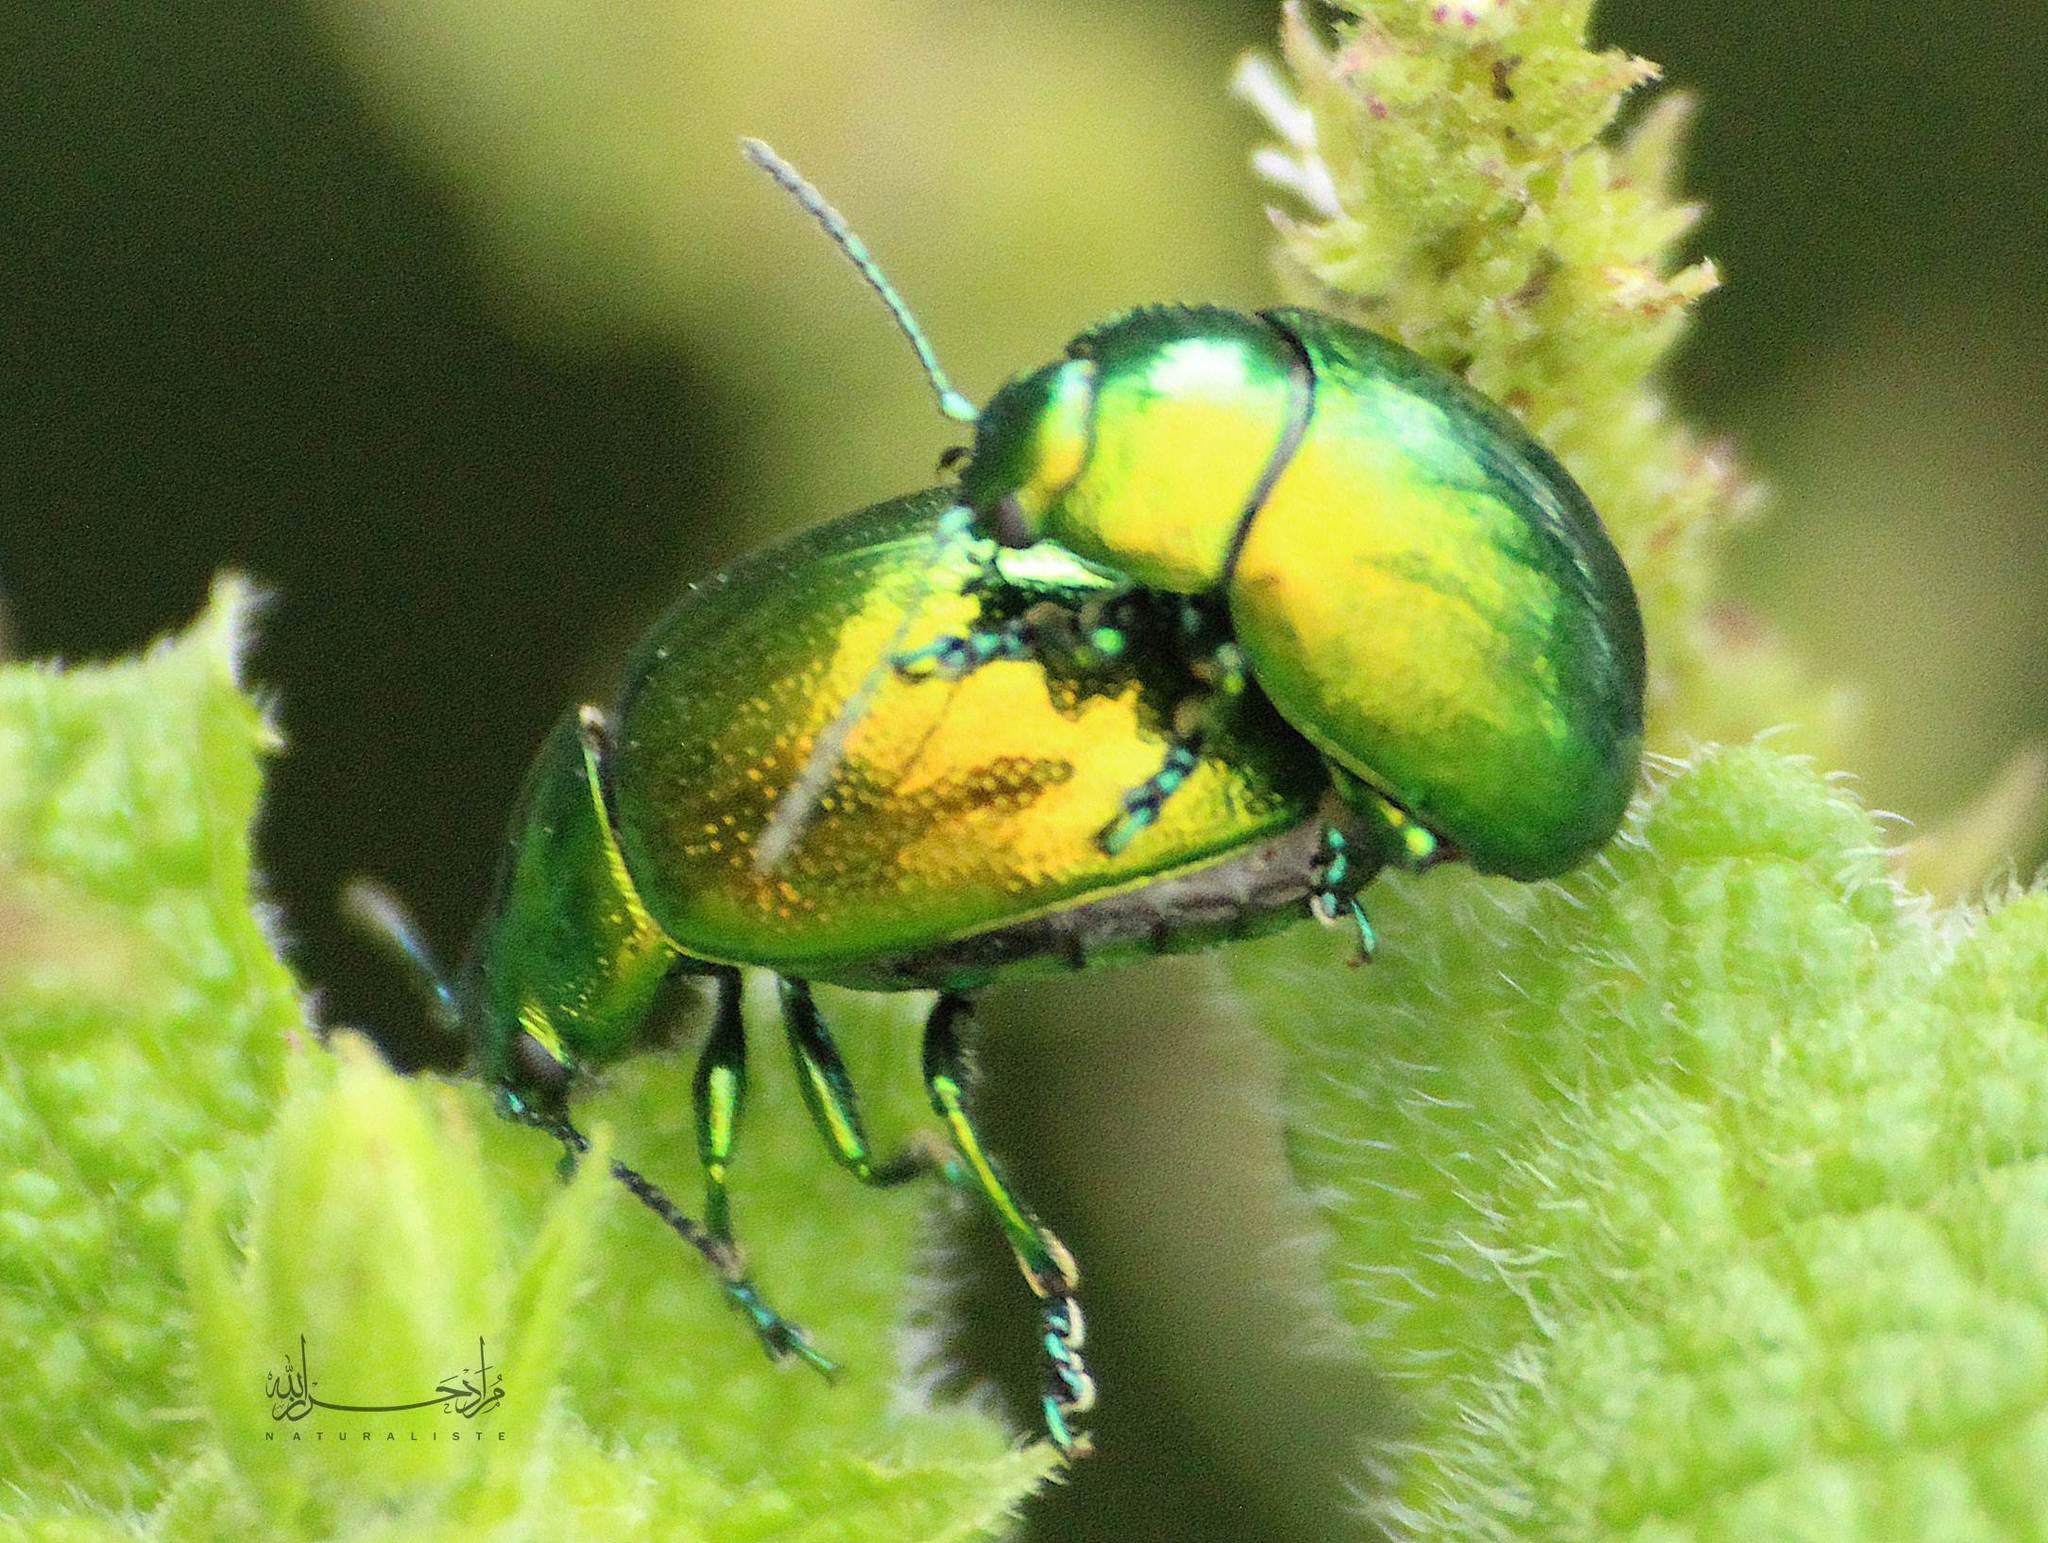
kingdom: Animalia
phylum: Arthropoda
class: Insecta
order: Coleoptera
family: Chrysomelidae
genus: Chrysolina
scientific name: Chrysolina viridana
